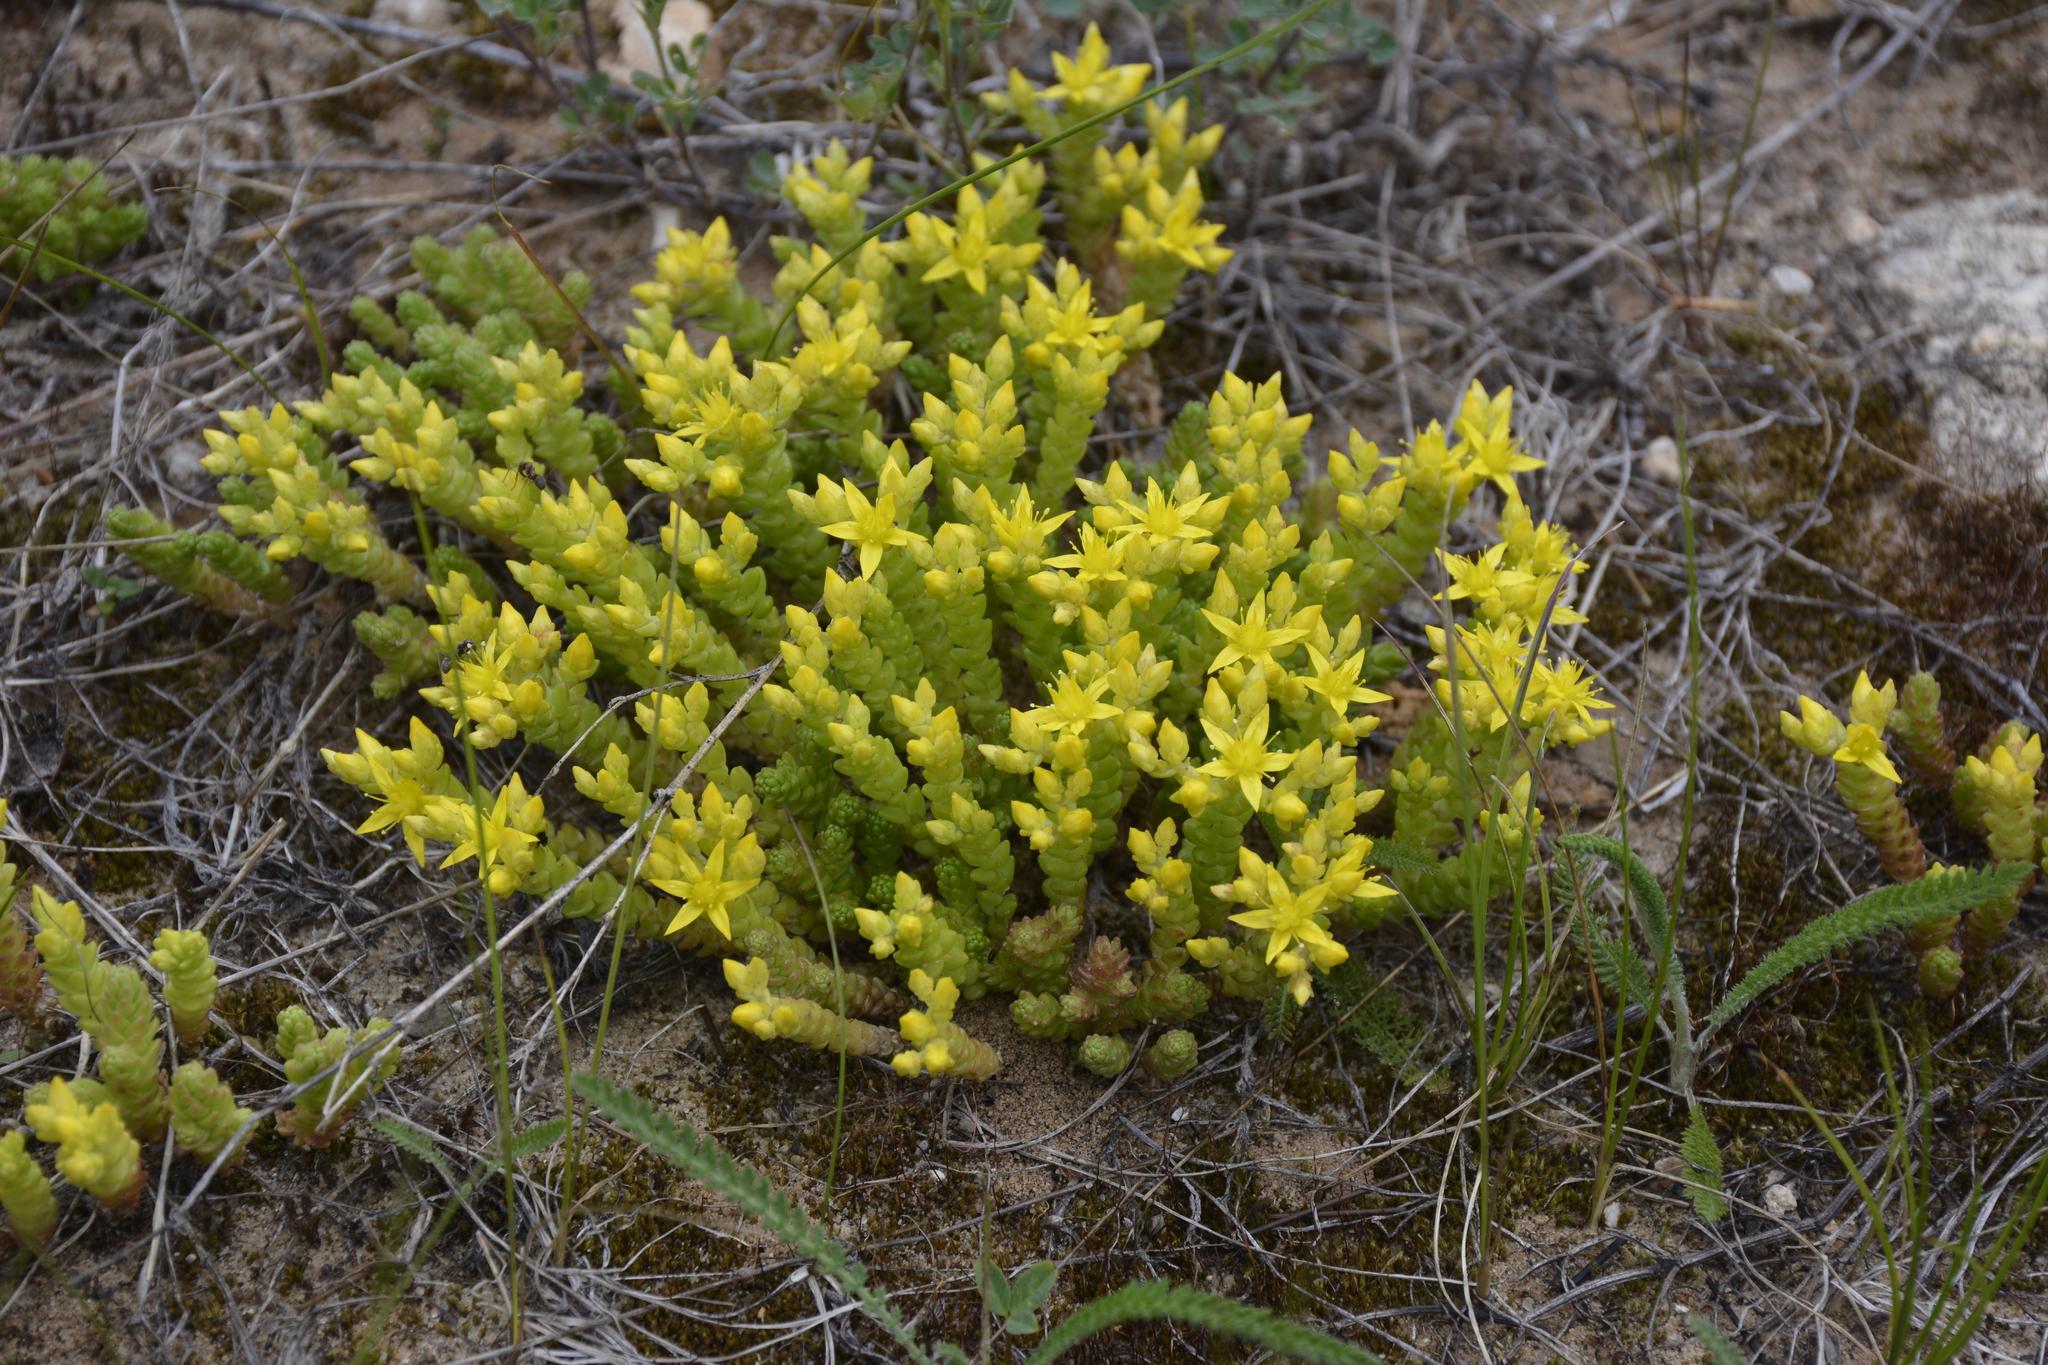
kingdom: Plantae
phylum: Tracheophyta
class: Magnoliopsida
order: Saxifragales
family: Crassulaceae
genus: Sedum
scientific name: Sedum acre
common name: Biting stonecrop
